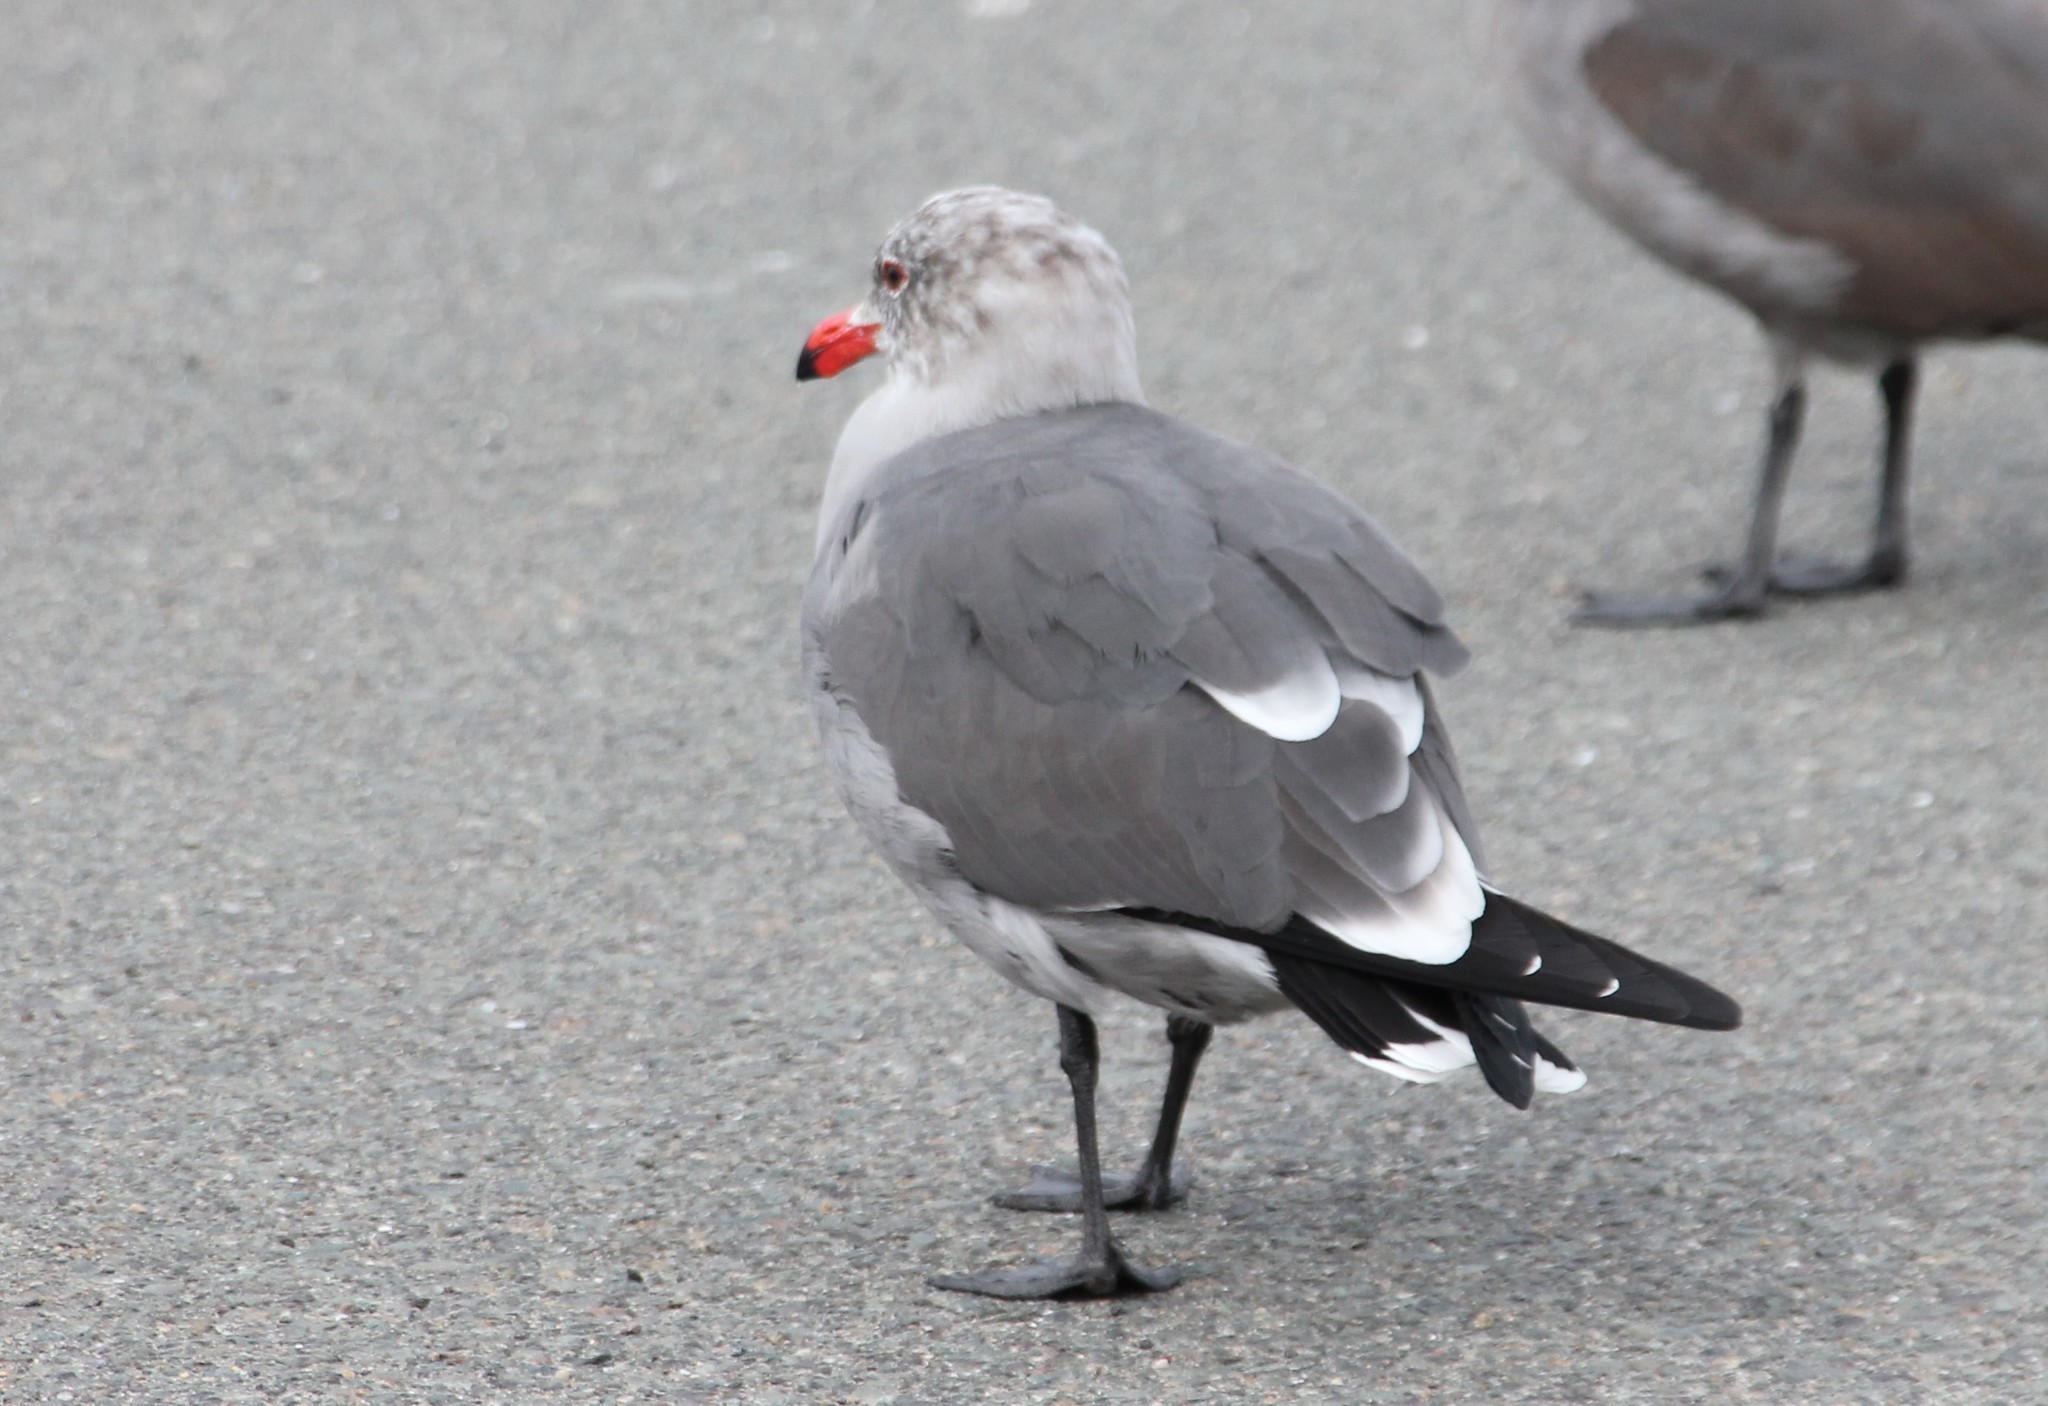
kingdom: Animalia
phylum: Chordata
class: Aves
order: Charadriiformes
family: Laridae
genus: Larus
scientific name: Larus heermanni
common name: Heermann's gull
